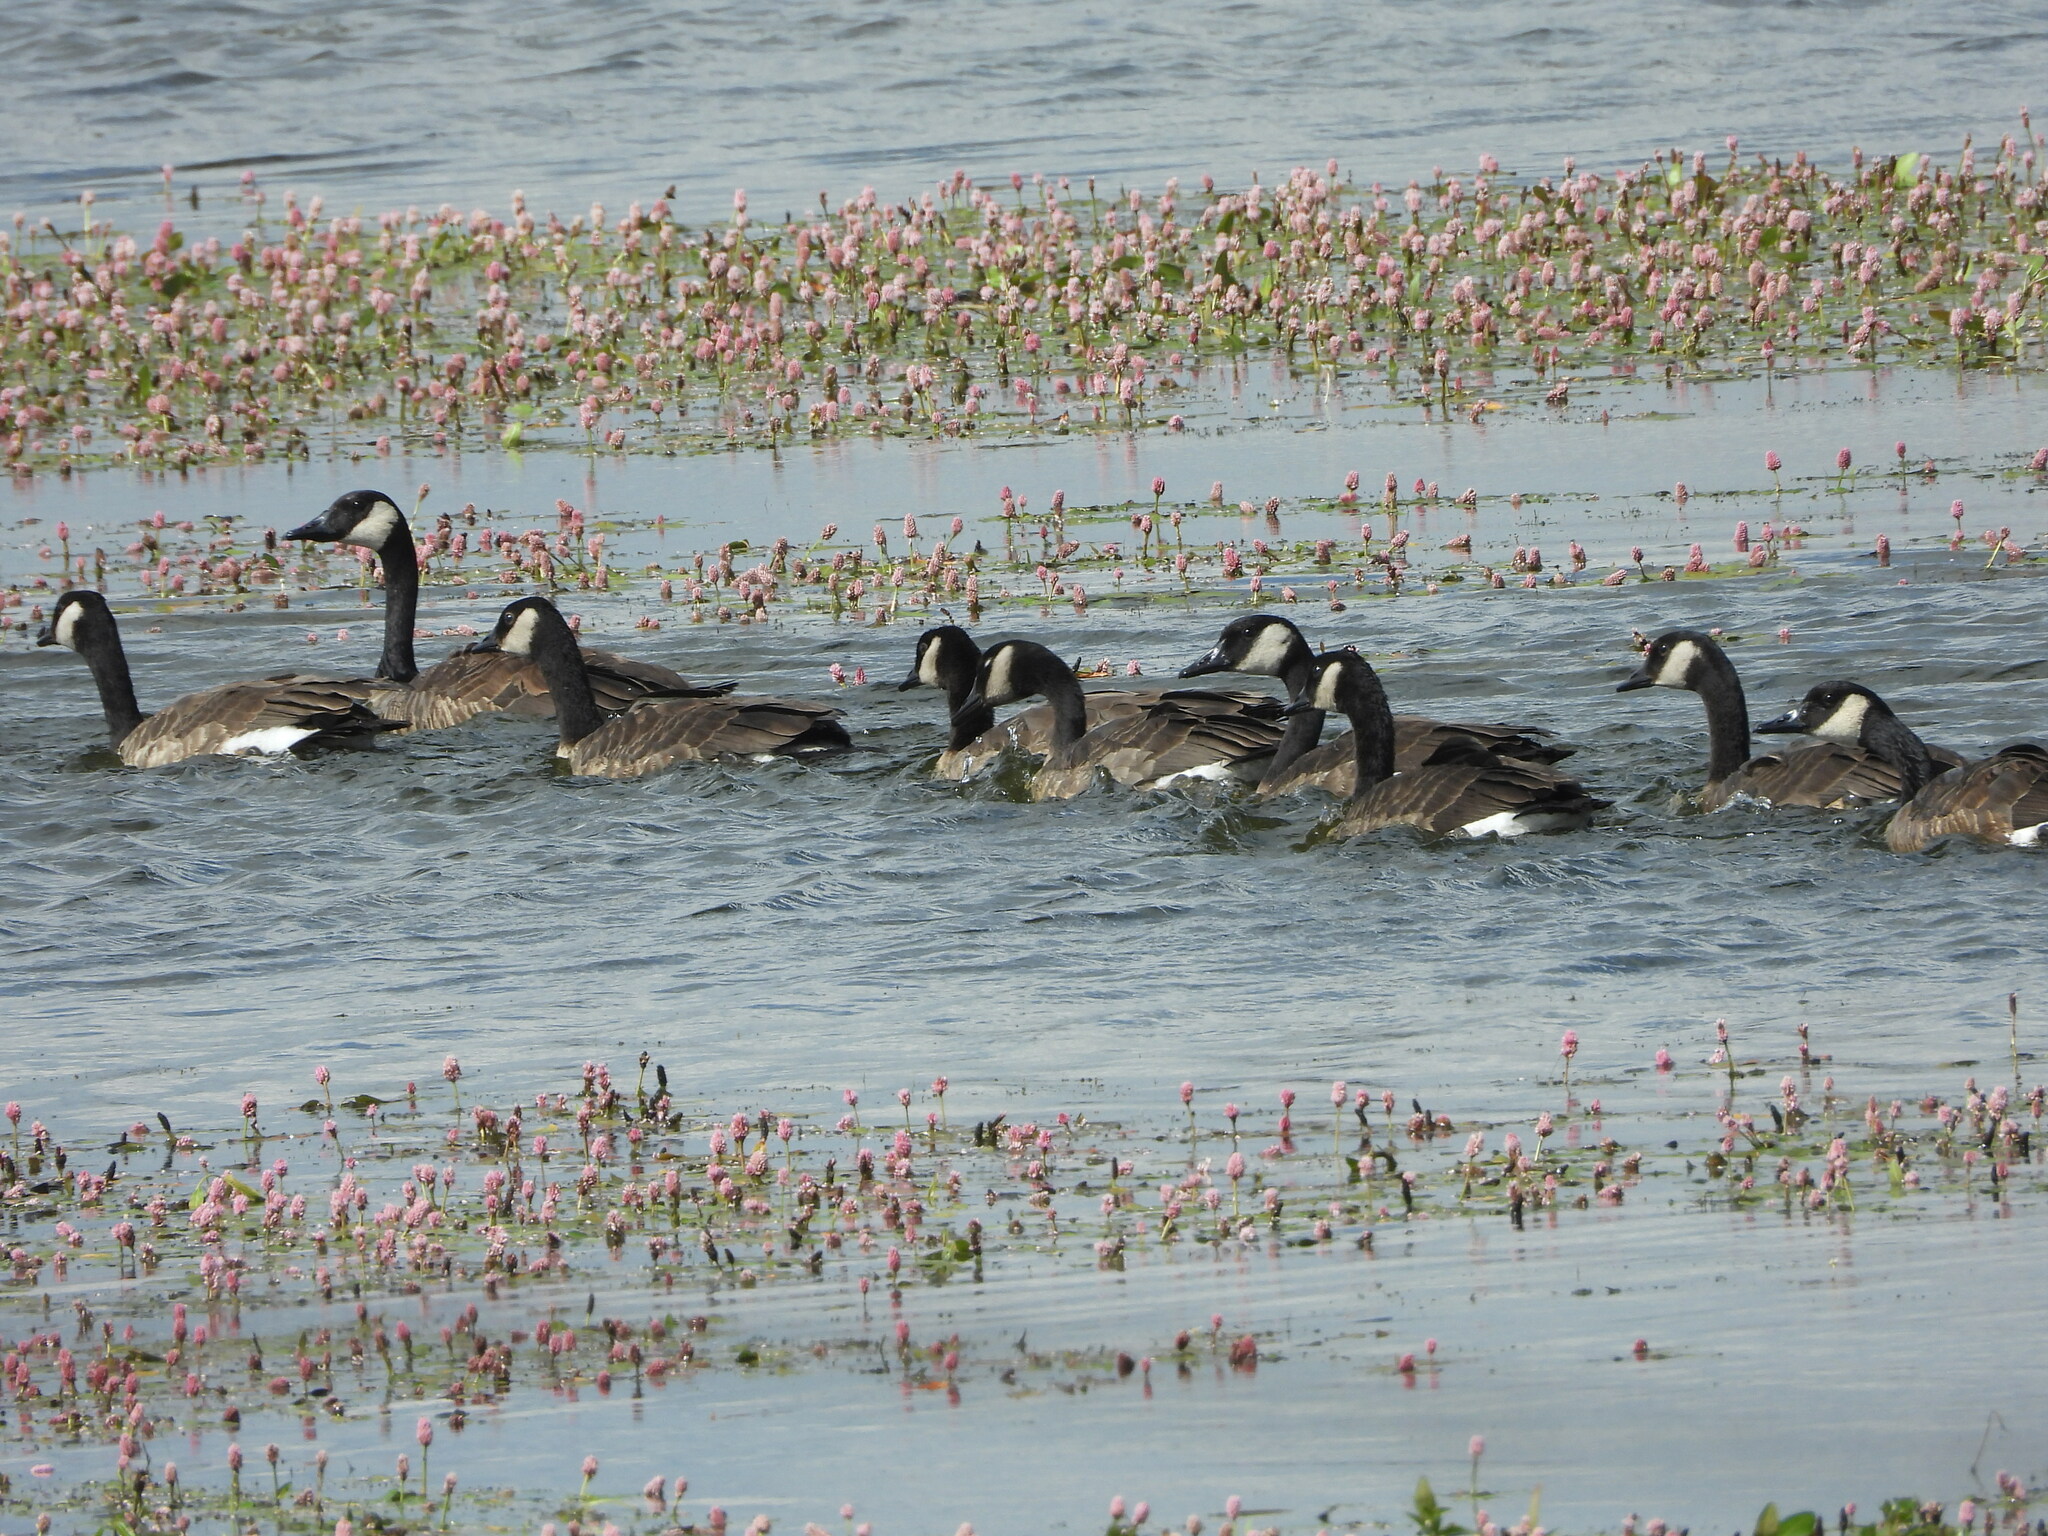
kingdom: Animalia
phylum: Chordata
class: Aves
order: Anseriformes
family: Anatidae
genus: Branta
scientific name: Branta canadensis
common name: Canada goose
